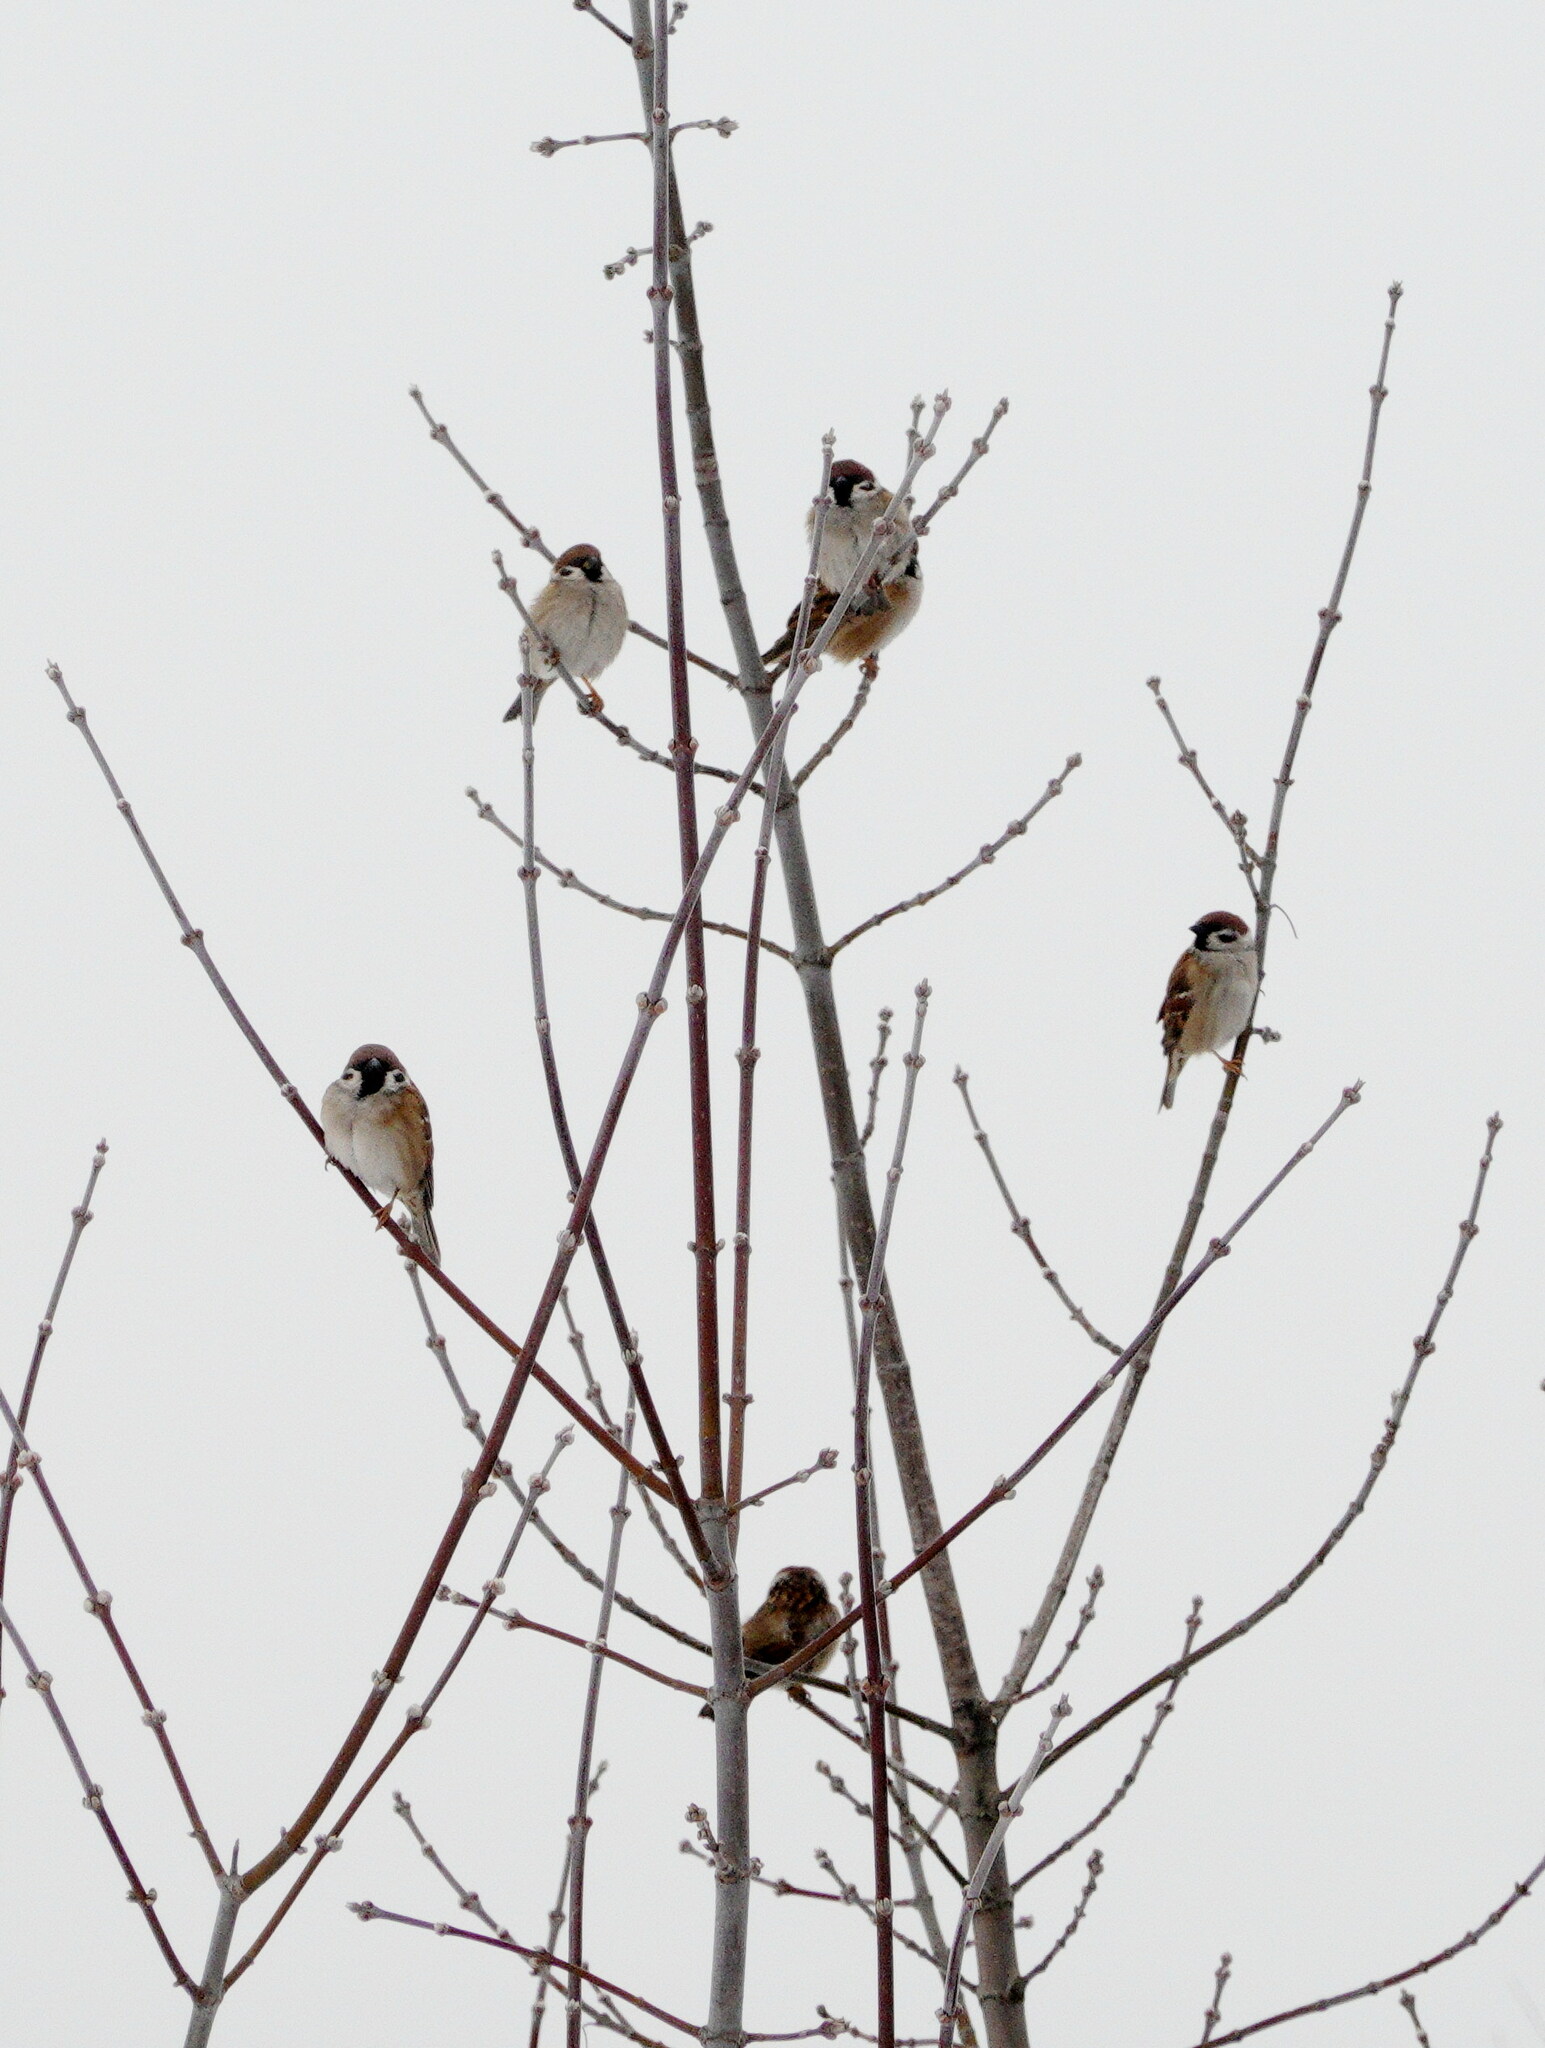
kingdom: Animalia
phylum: Chordata
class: Aves
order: Passeriformes
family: Passeridae
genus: Passer
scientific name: Passer montanus
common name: Eurasian tree sparrow
